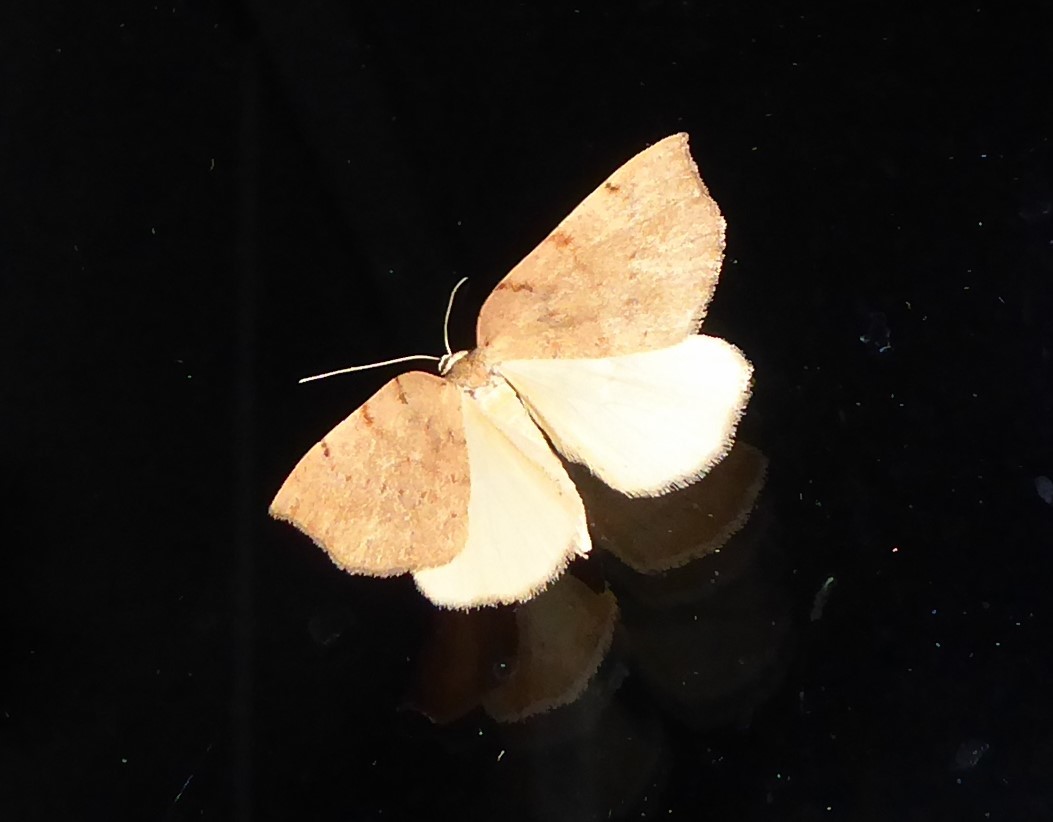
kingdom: Animalia
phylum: Arthropoda
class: Insecta
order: Lepidoptera
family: Geometridae
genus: Sestra
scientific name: Sestra humeraria
